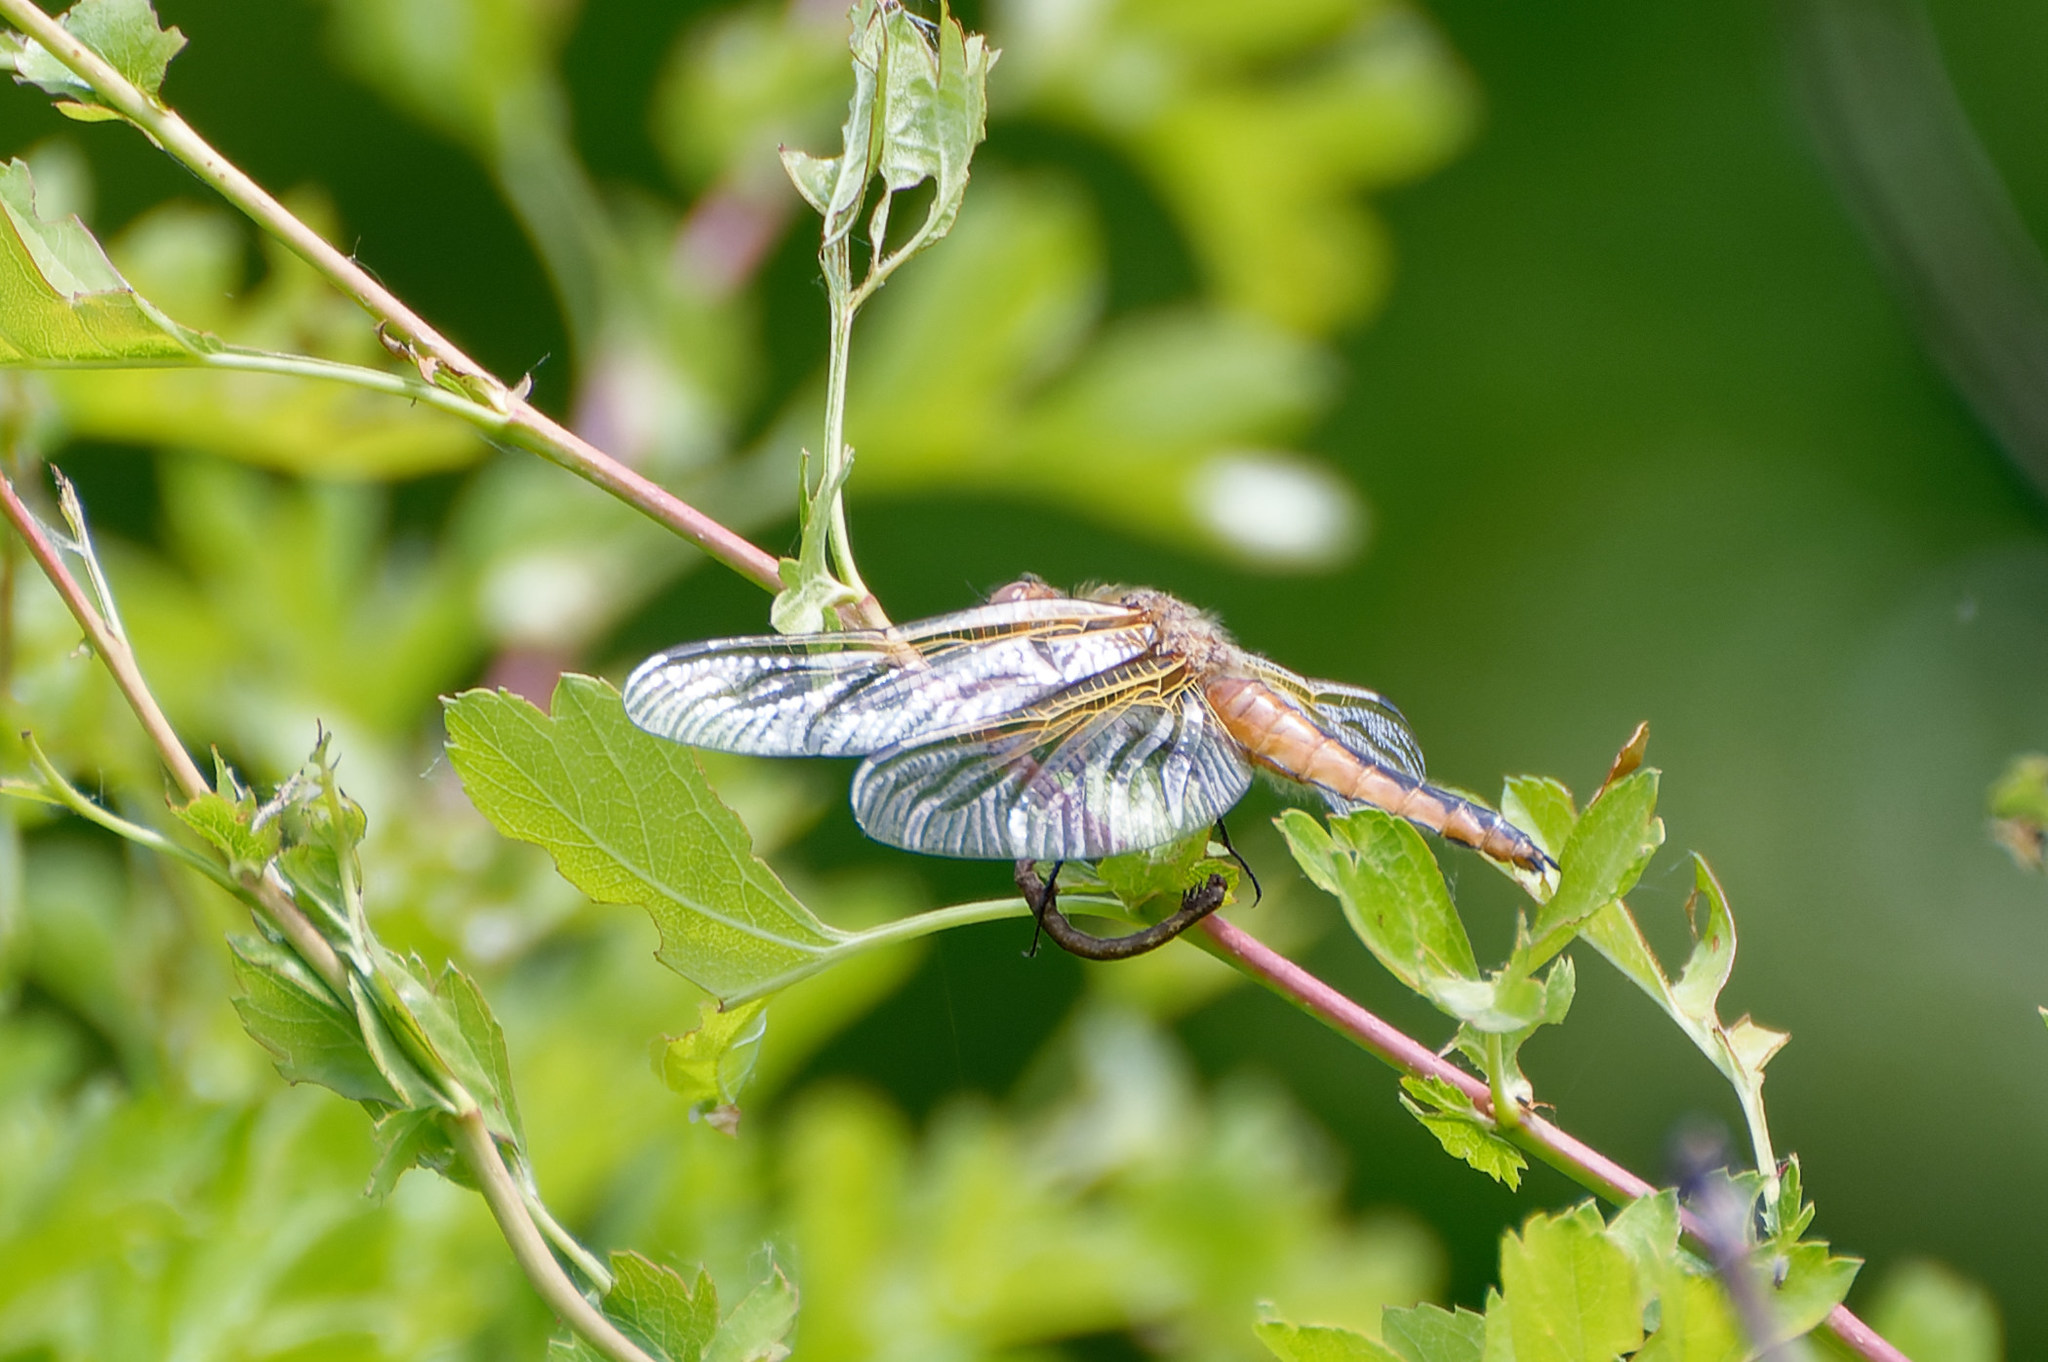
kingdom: Animalia
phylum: Arthropoda
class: Insecta
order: Odonata
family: Libellulidae
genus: Libellula
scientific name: Libellula fulva
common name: Blue chaser
